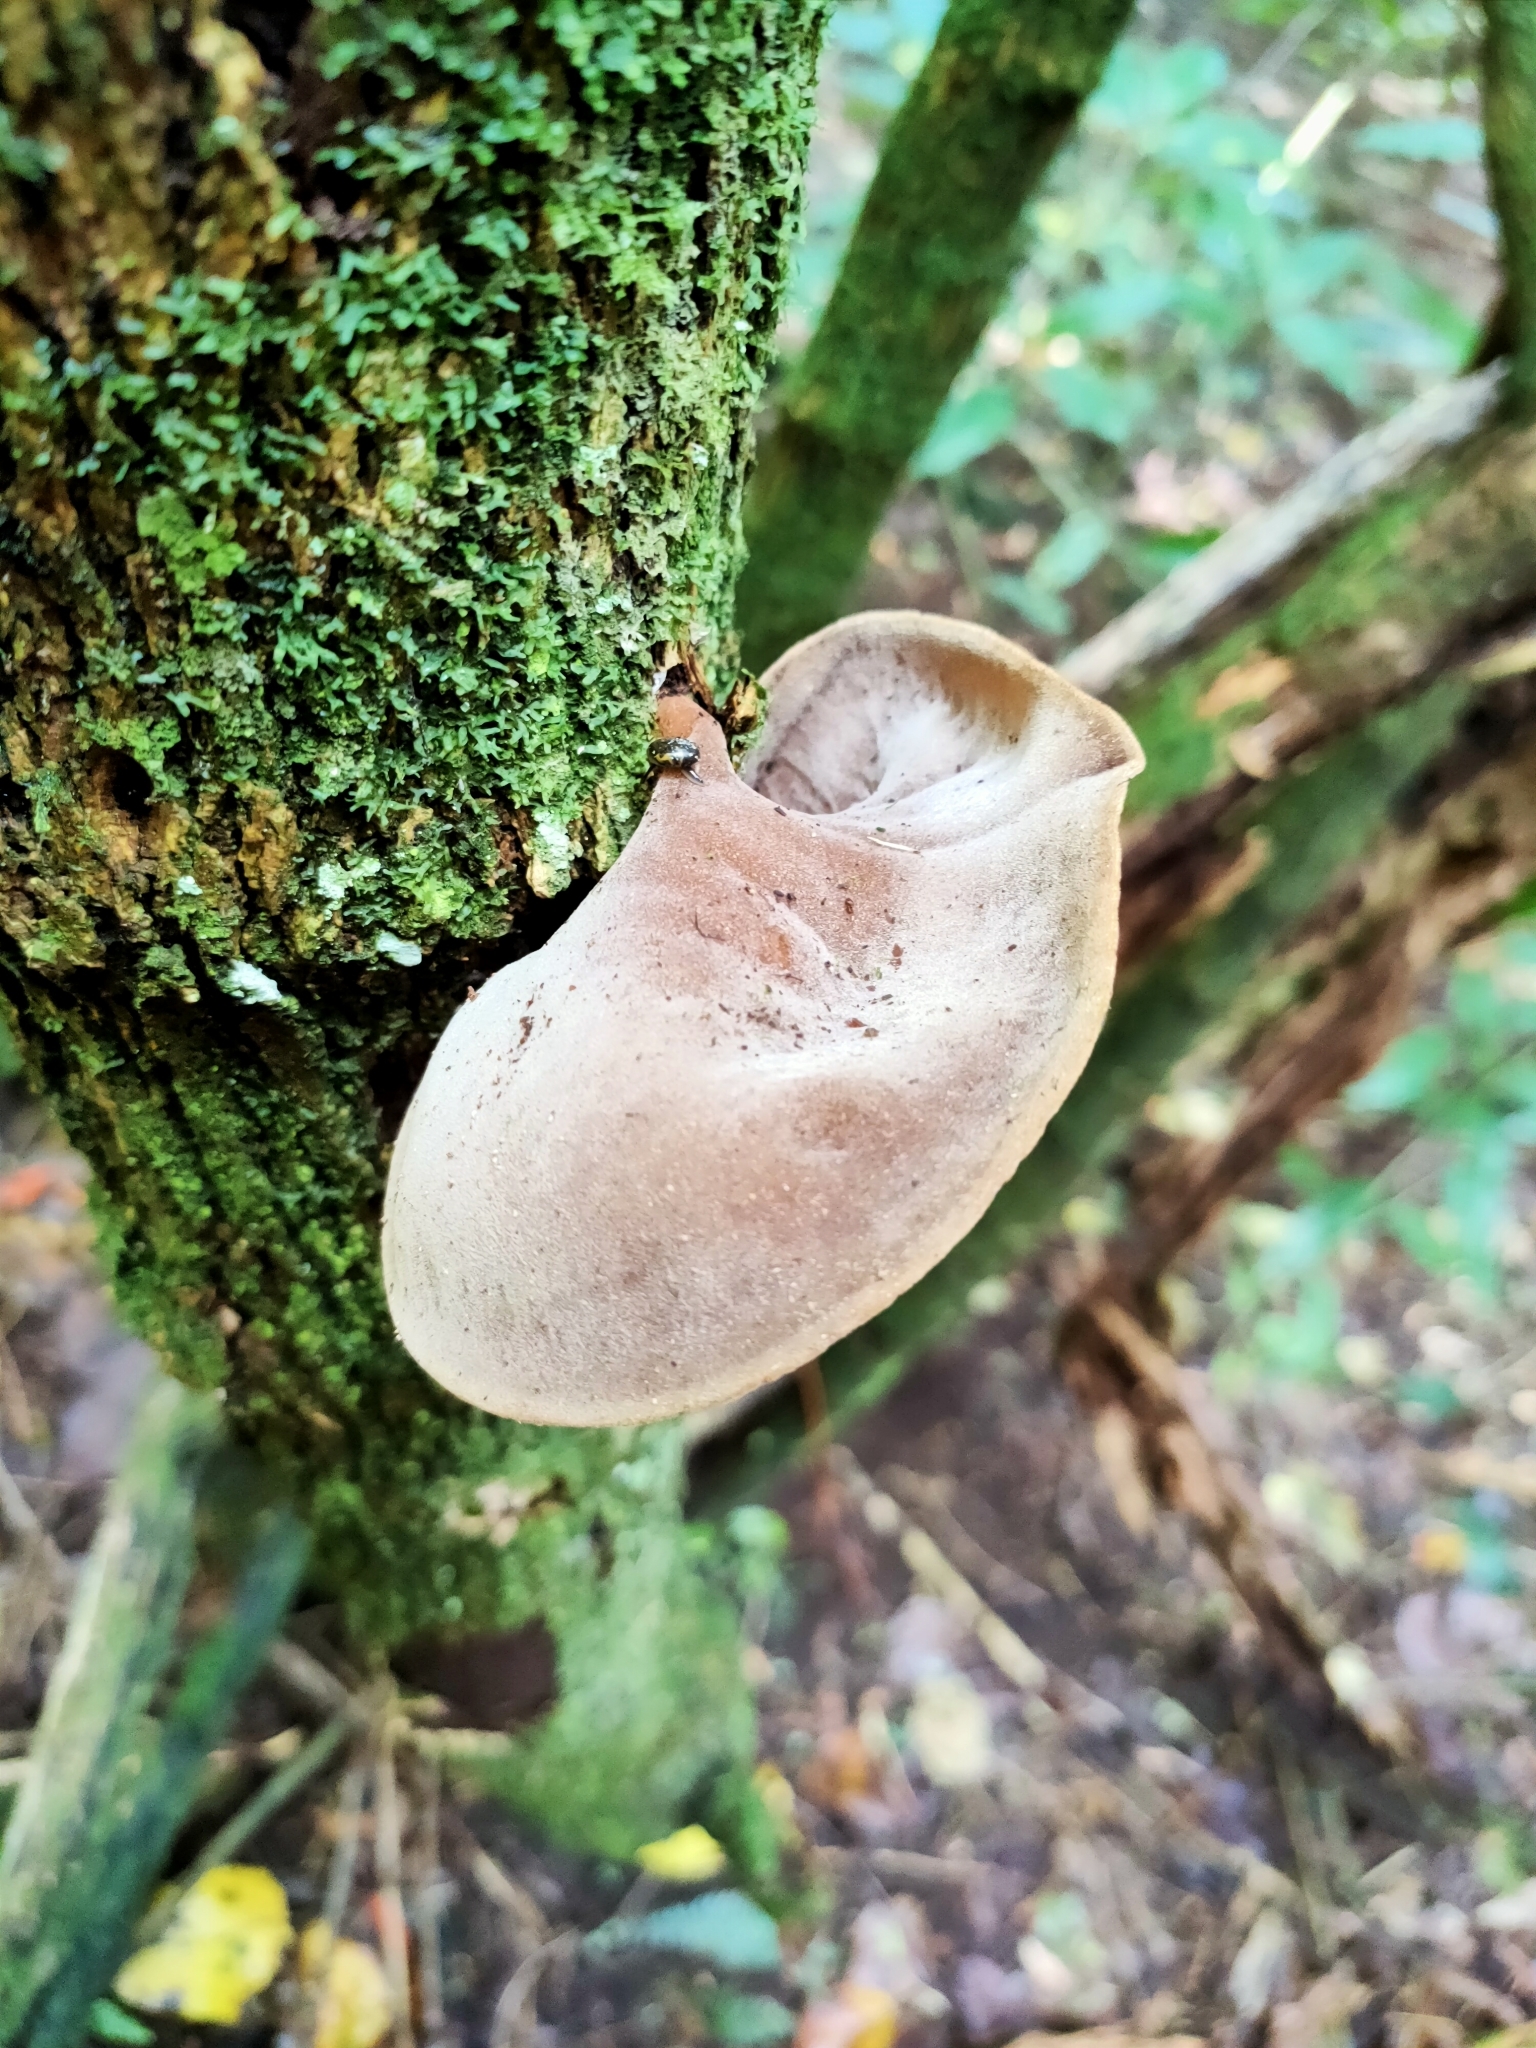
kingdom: Fungi
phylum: Basidiomycota
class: Agaricomycetes
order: Auriculariales
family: Auriculariaceae
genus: Auricularia
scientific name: Auricularia cornea
